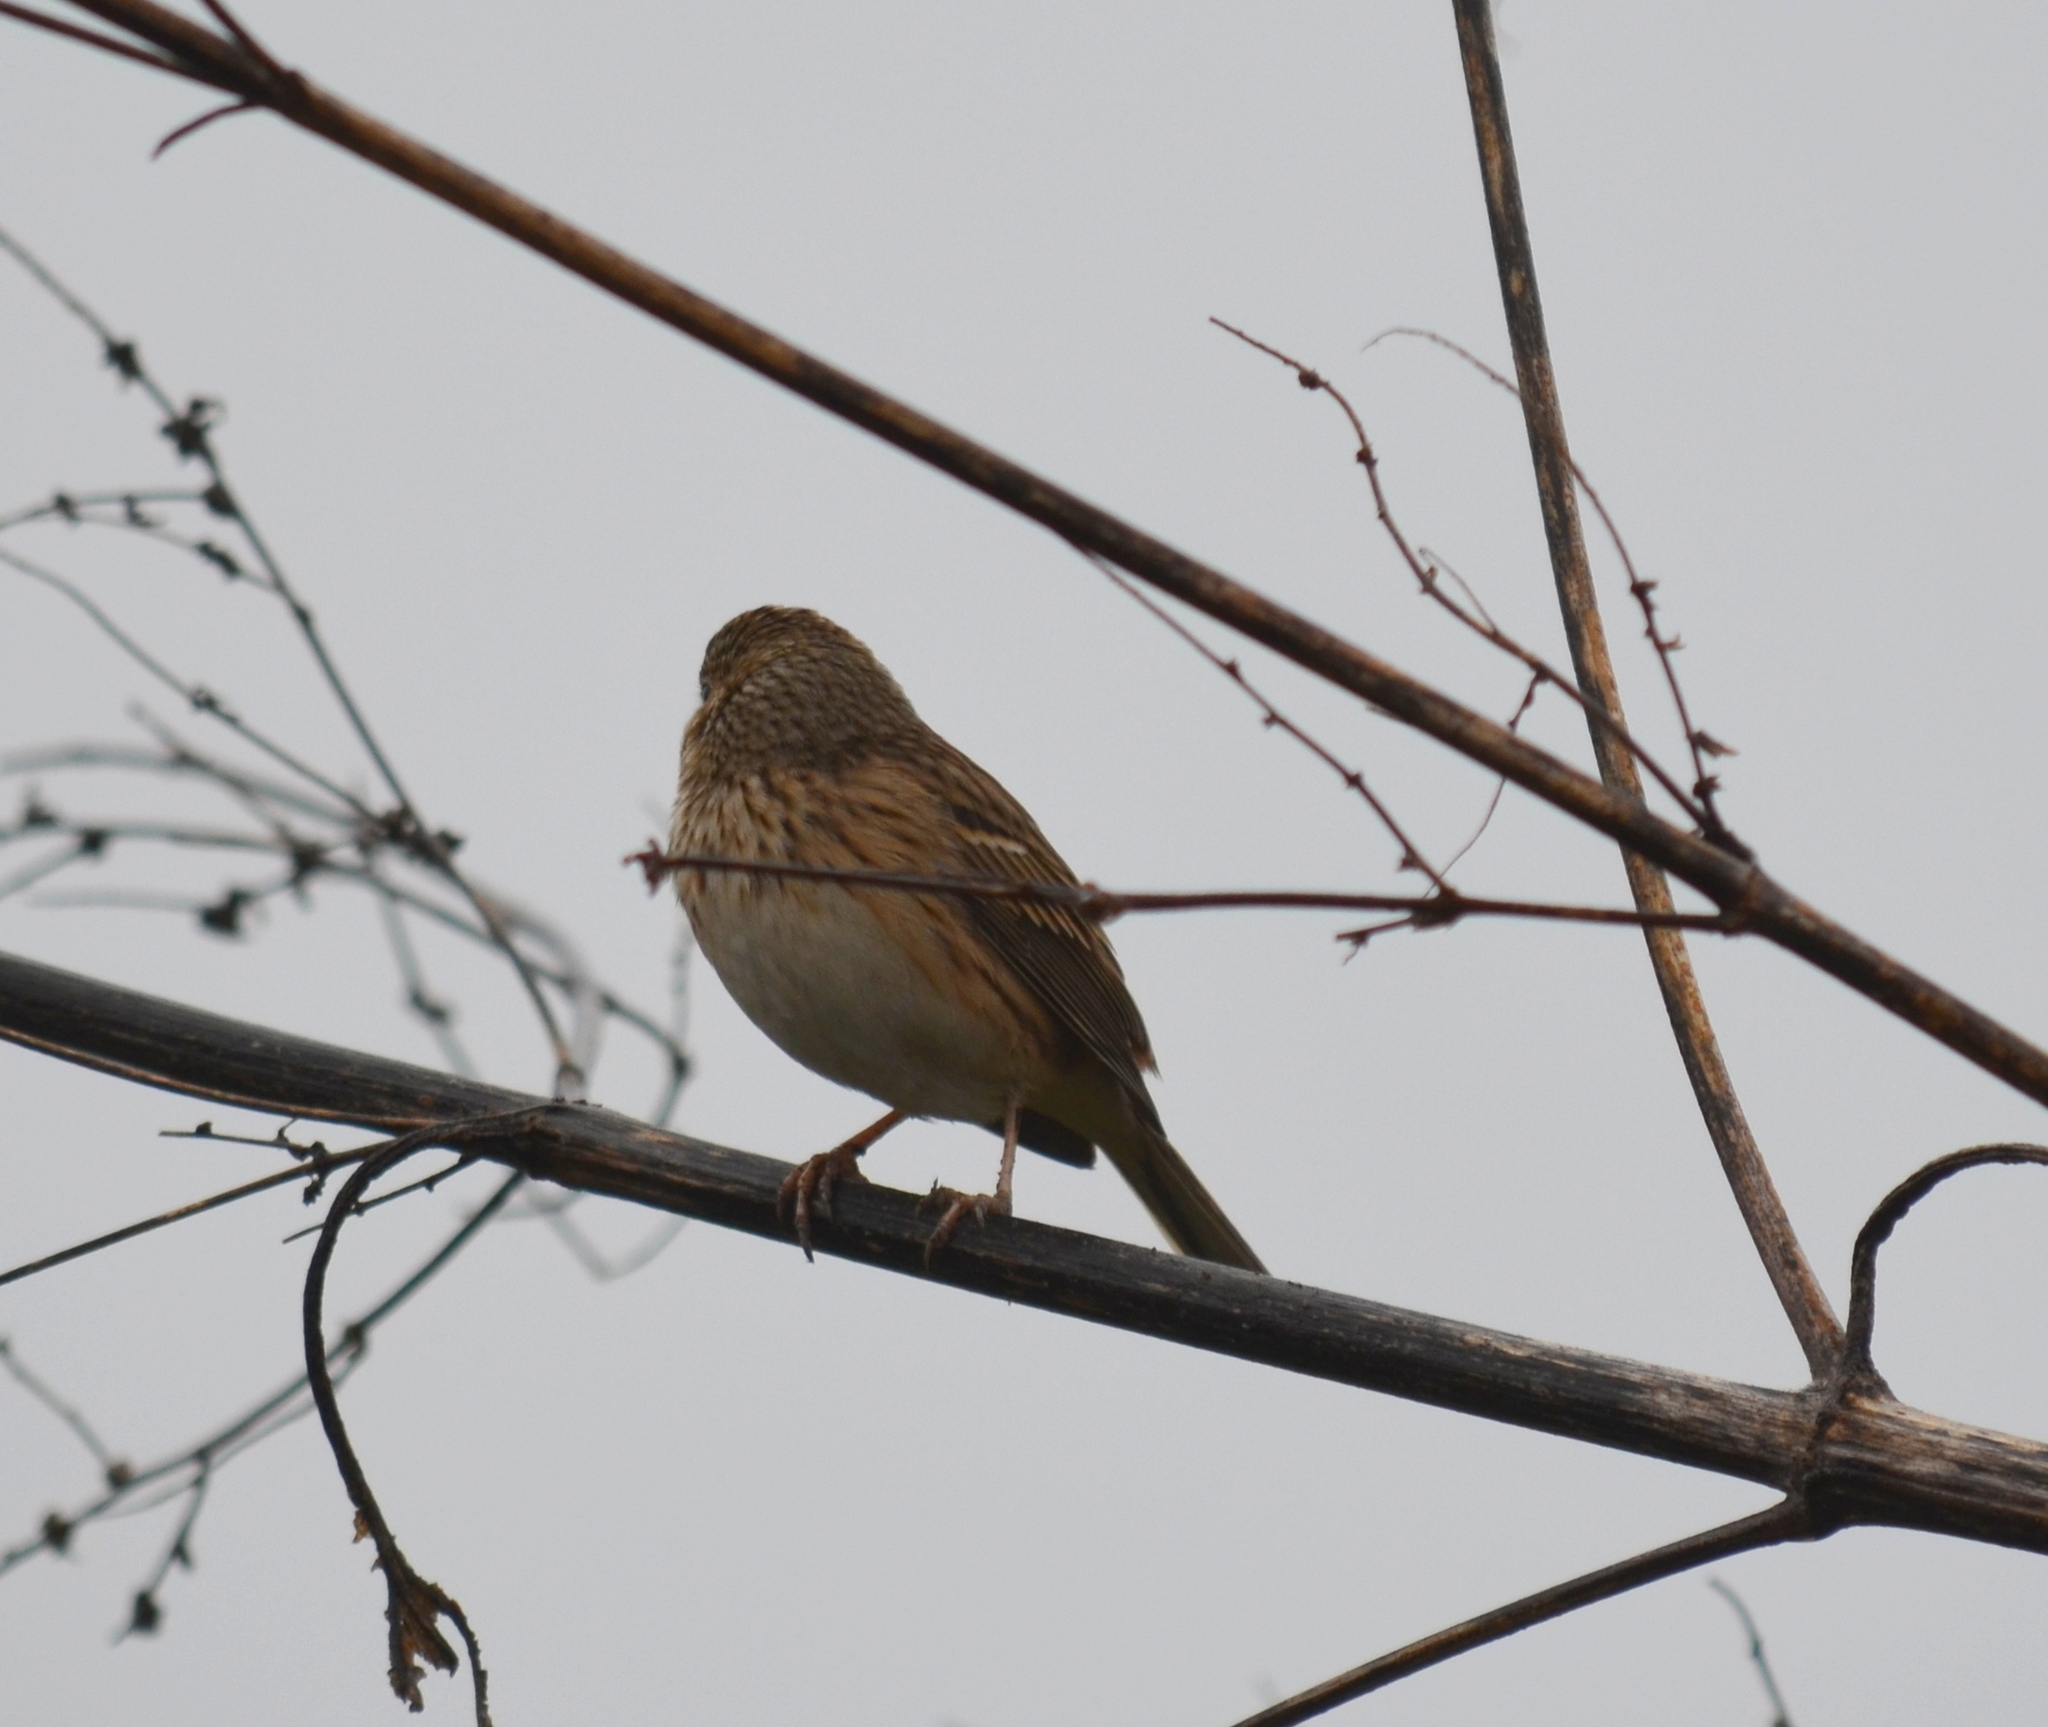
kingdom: Animalia
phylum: Chordata
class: Aves
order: Passeriformes
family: Passerellidae
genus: Pooecetes
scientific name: Pooecetes gramineus
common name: Vesper sparrow
